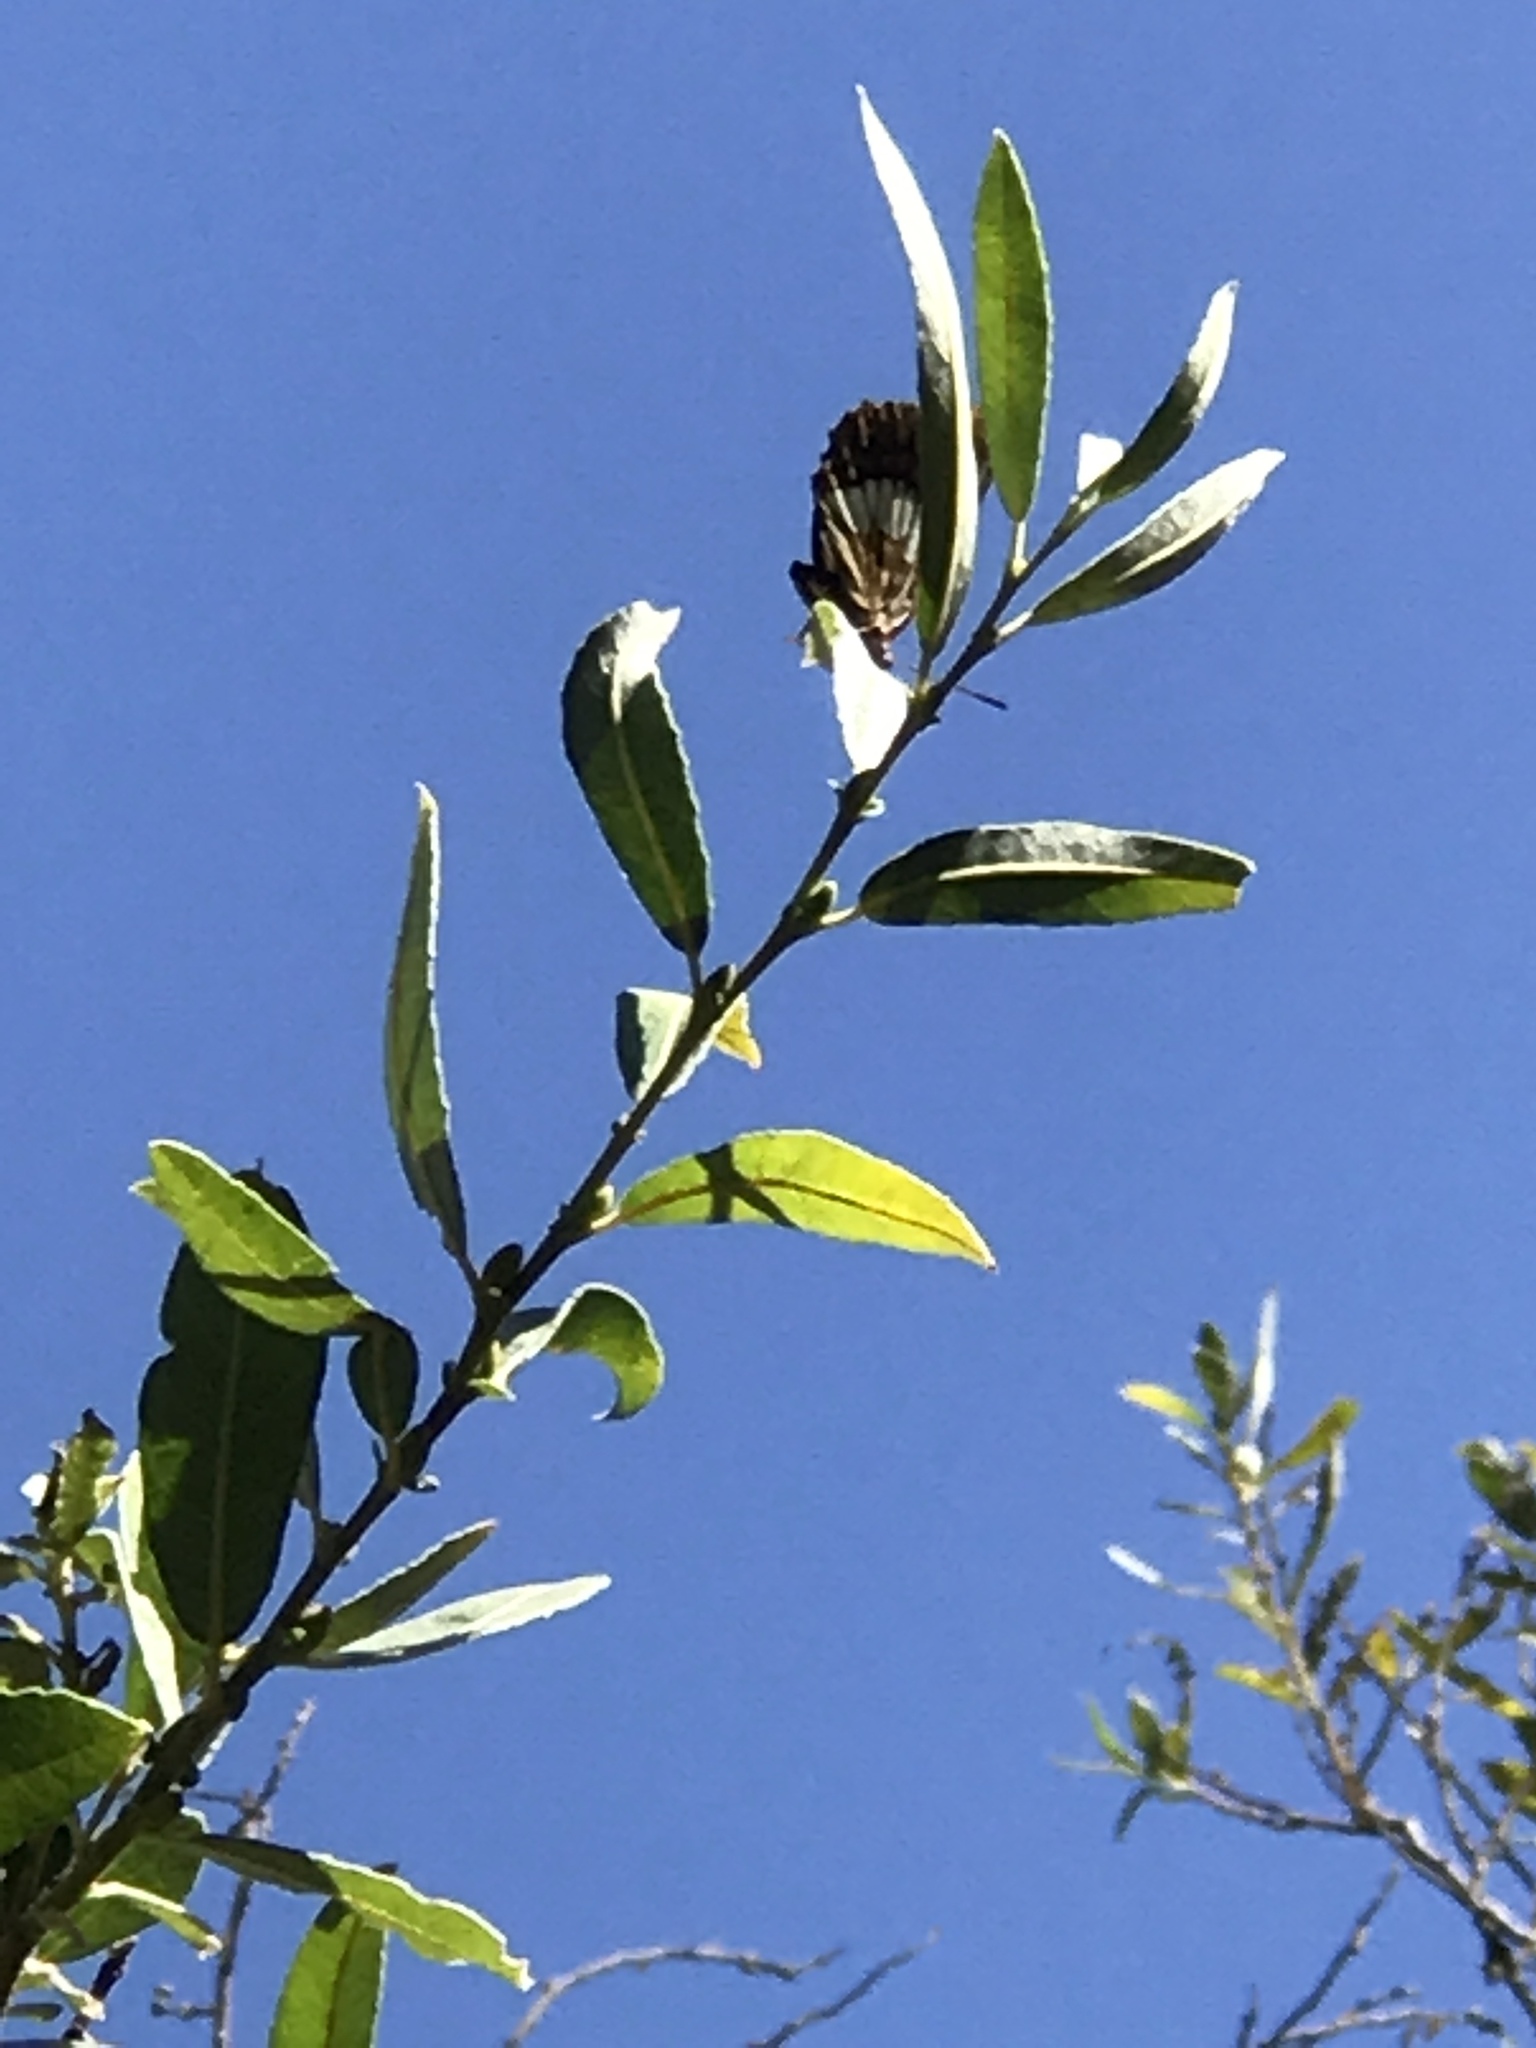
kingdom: Animalia
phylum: Arthropoda
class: Insecta
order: Lepidoptera
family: Nymphalidae
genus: Limenitis
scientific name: Limenitis lorquini
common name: Lorquin's admiral
